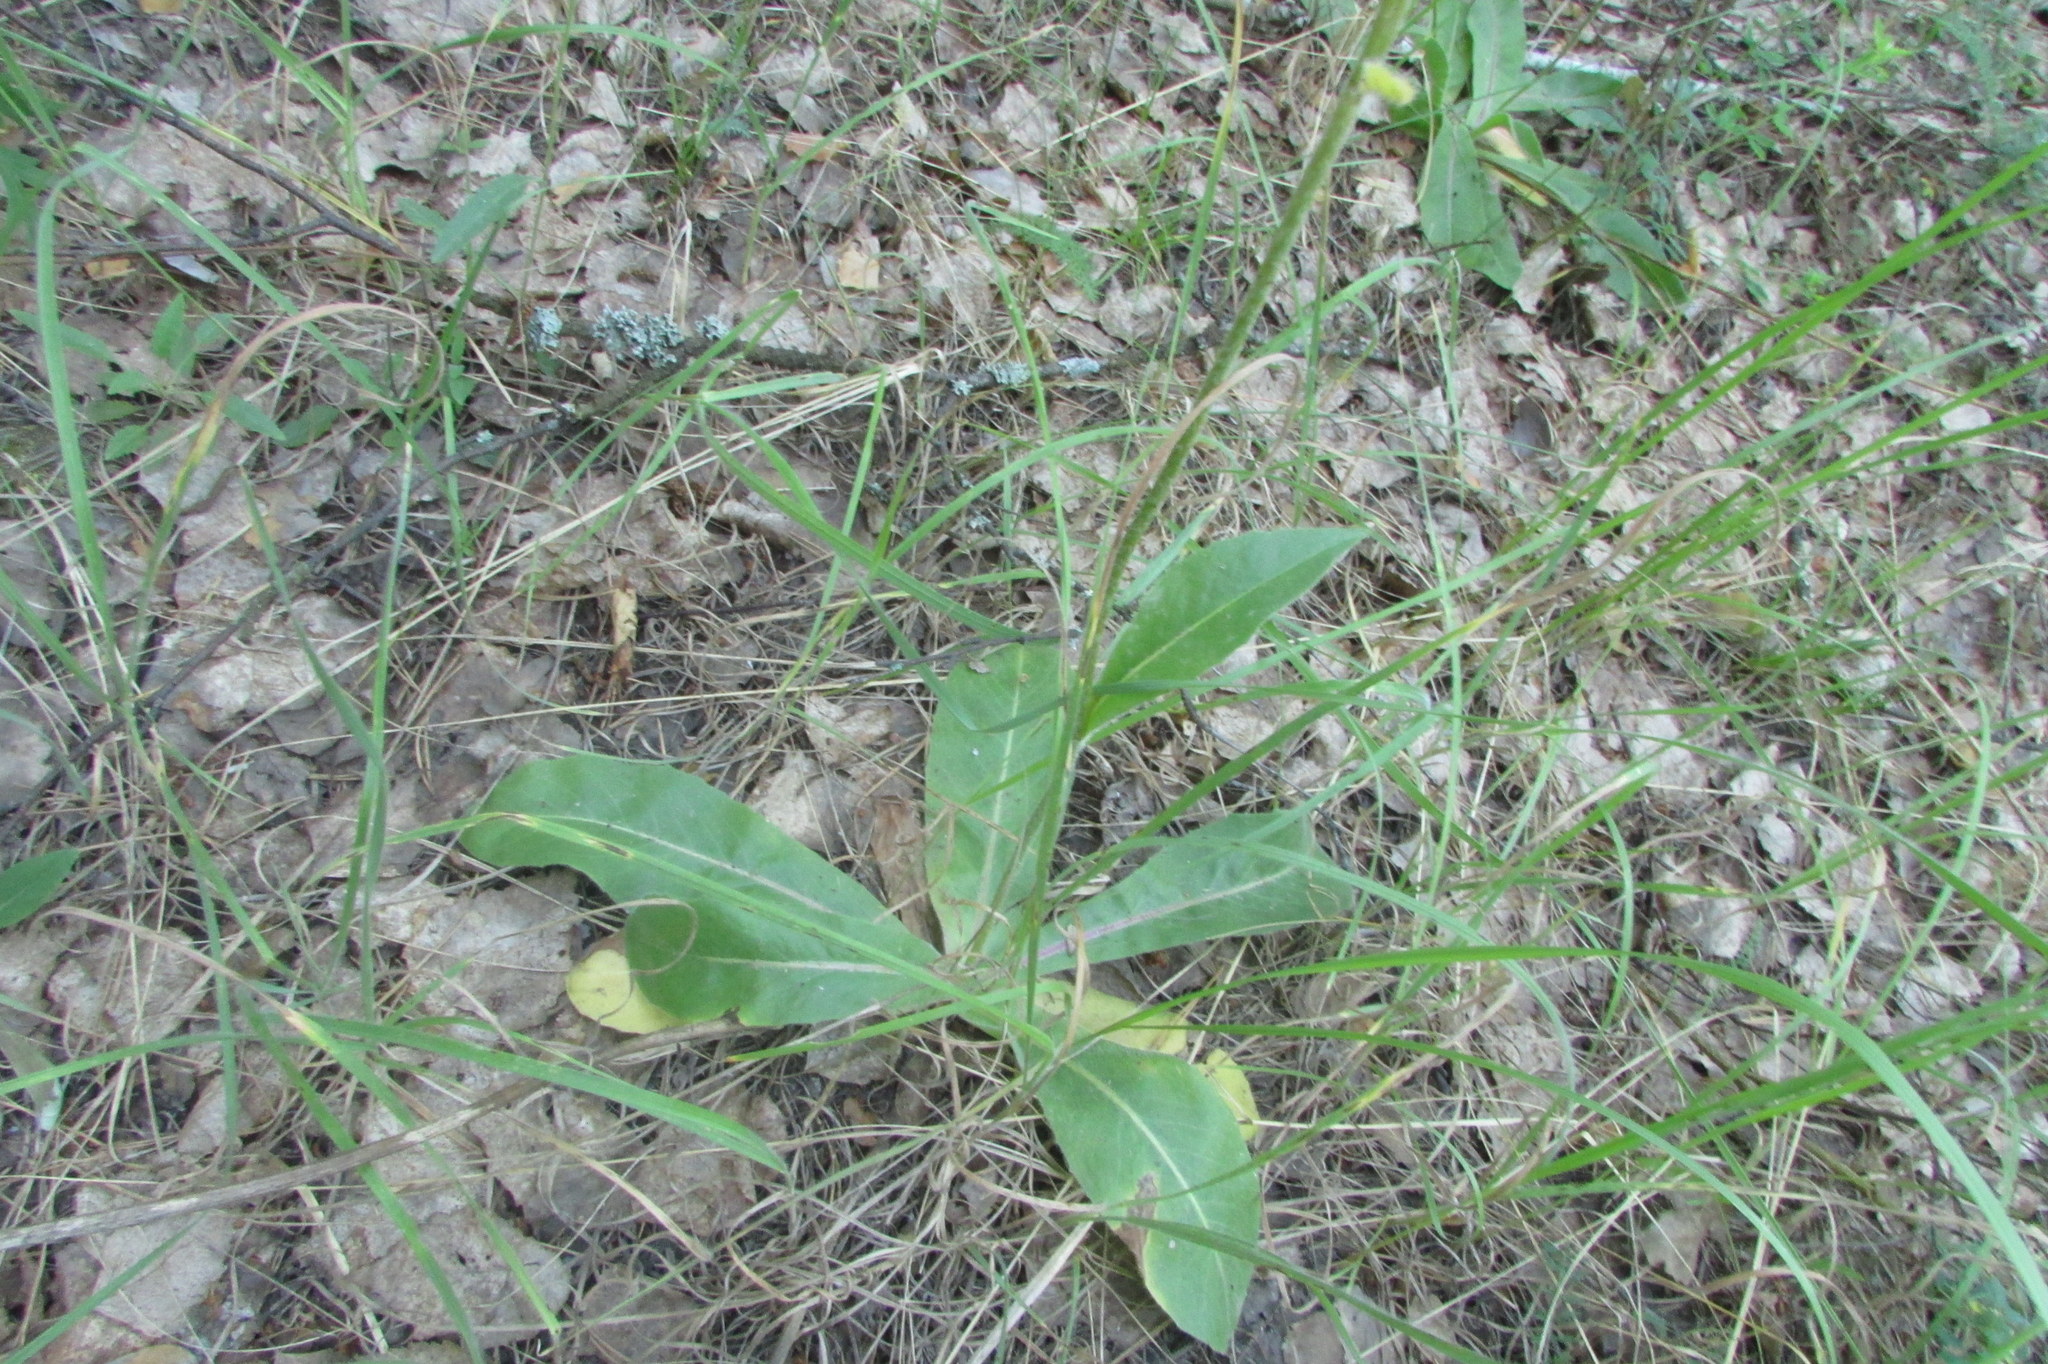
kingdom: Plantae
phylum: Tracheophyta
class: Magnoliopsida
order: Asterales
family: Asteraceae
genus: Trommsdorffia
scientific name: Trommsdorffia maculata
